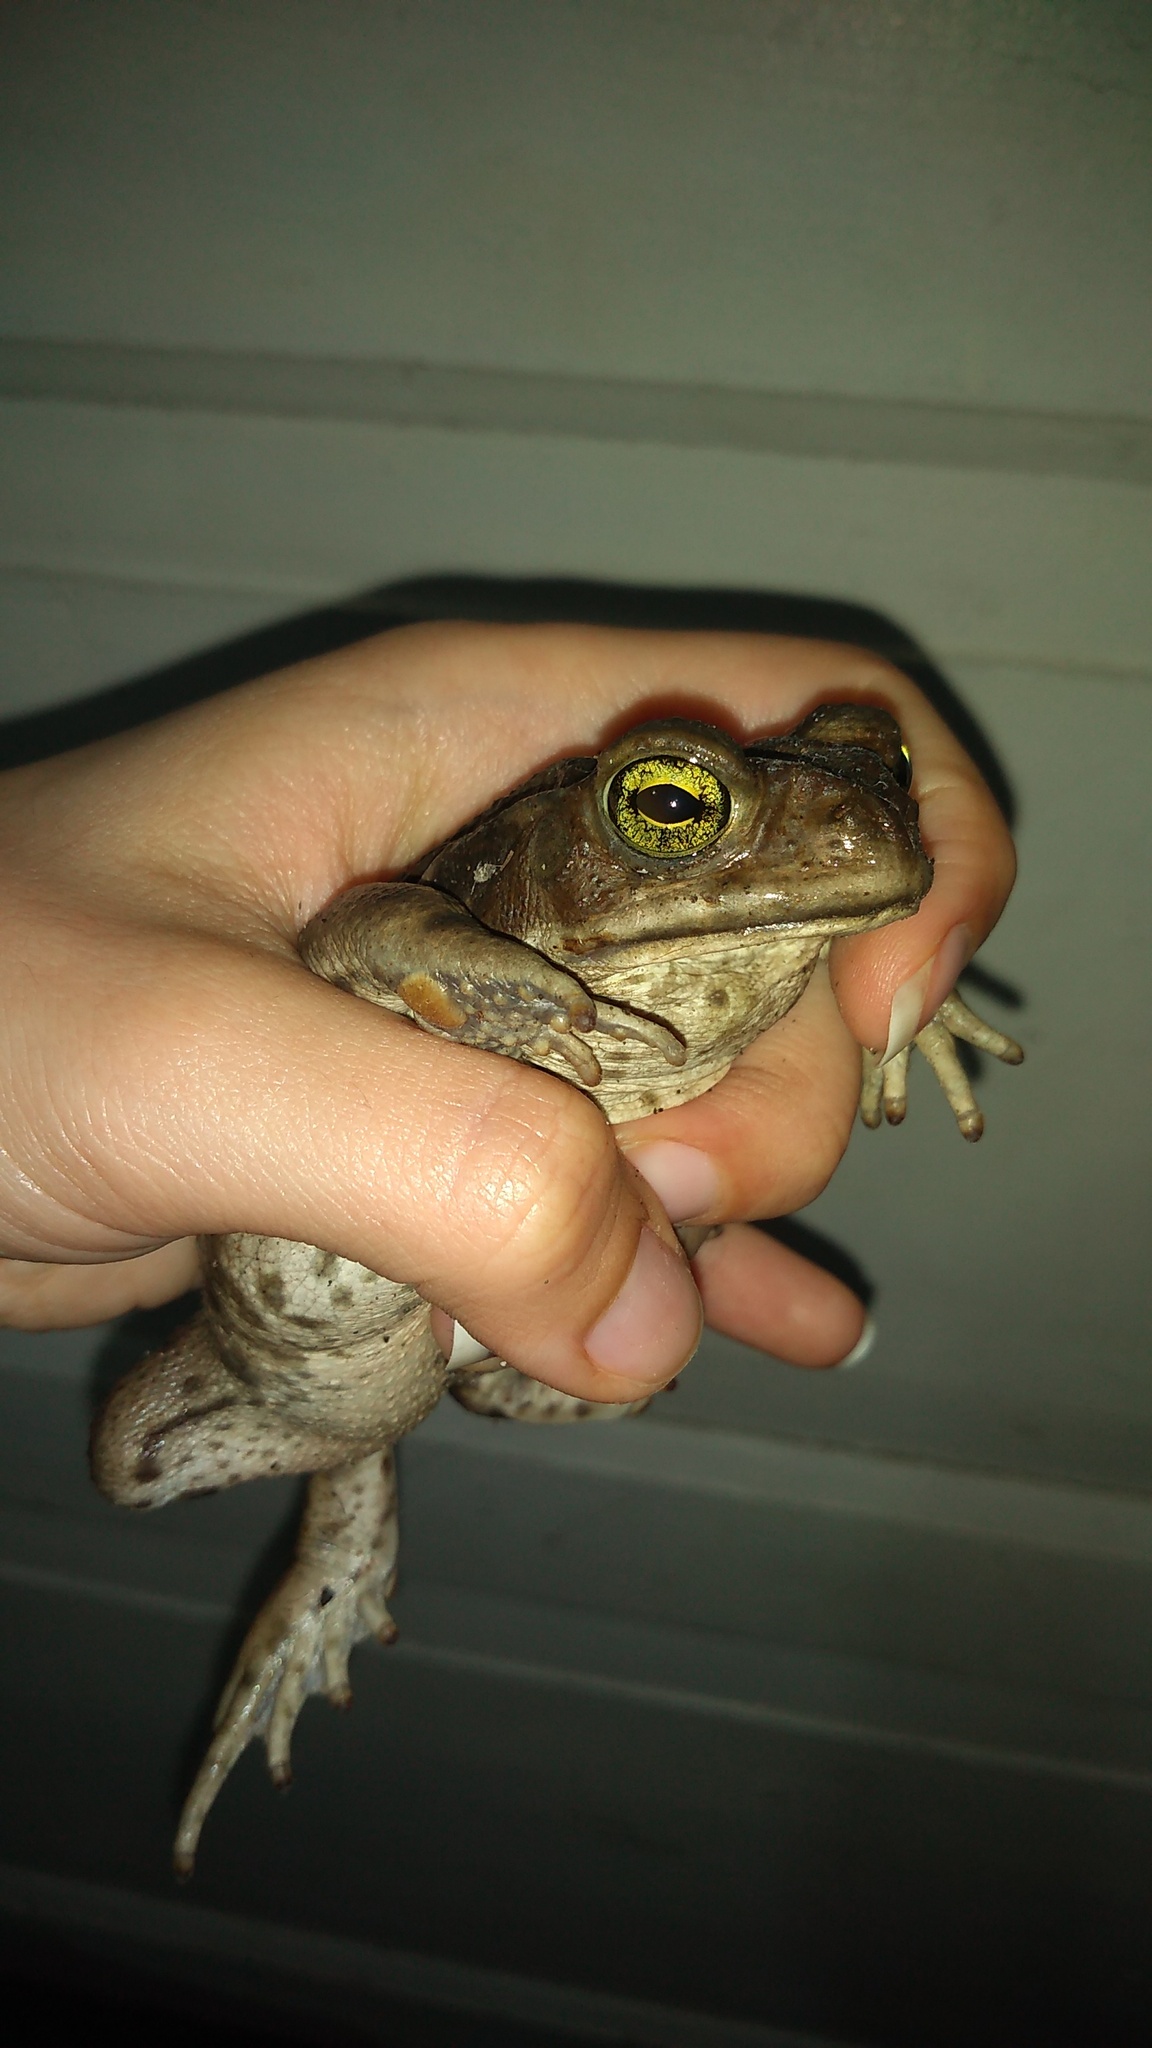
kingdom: Animalia
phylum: Chordata
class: Amphibia
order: Anura
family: Bufonidae
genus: Rhinella
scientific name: Rhinella arenarum
